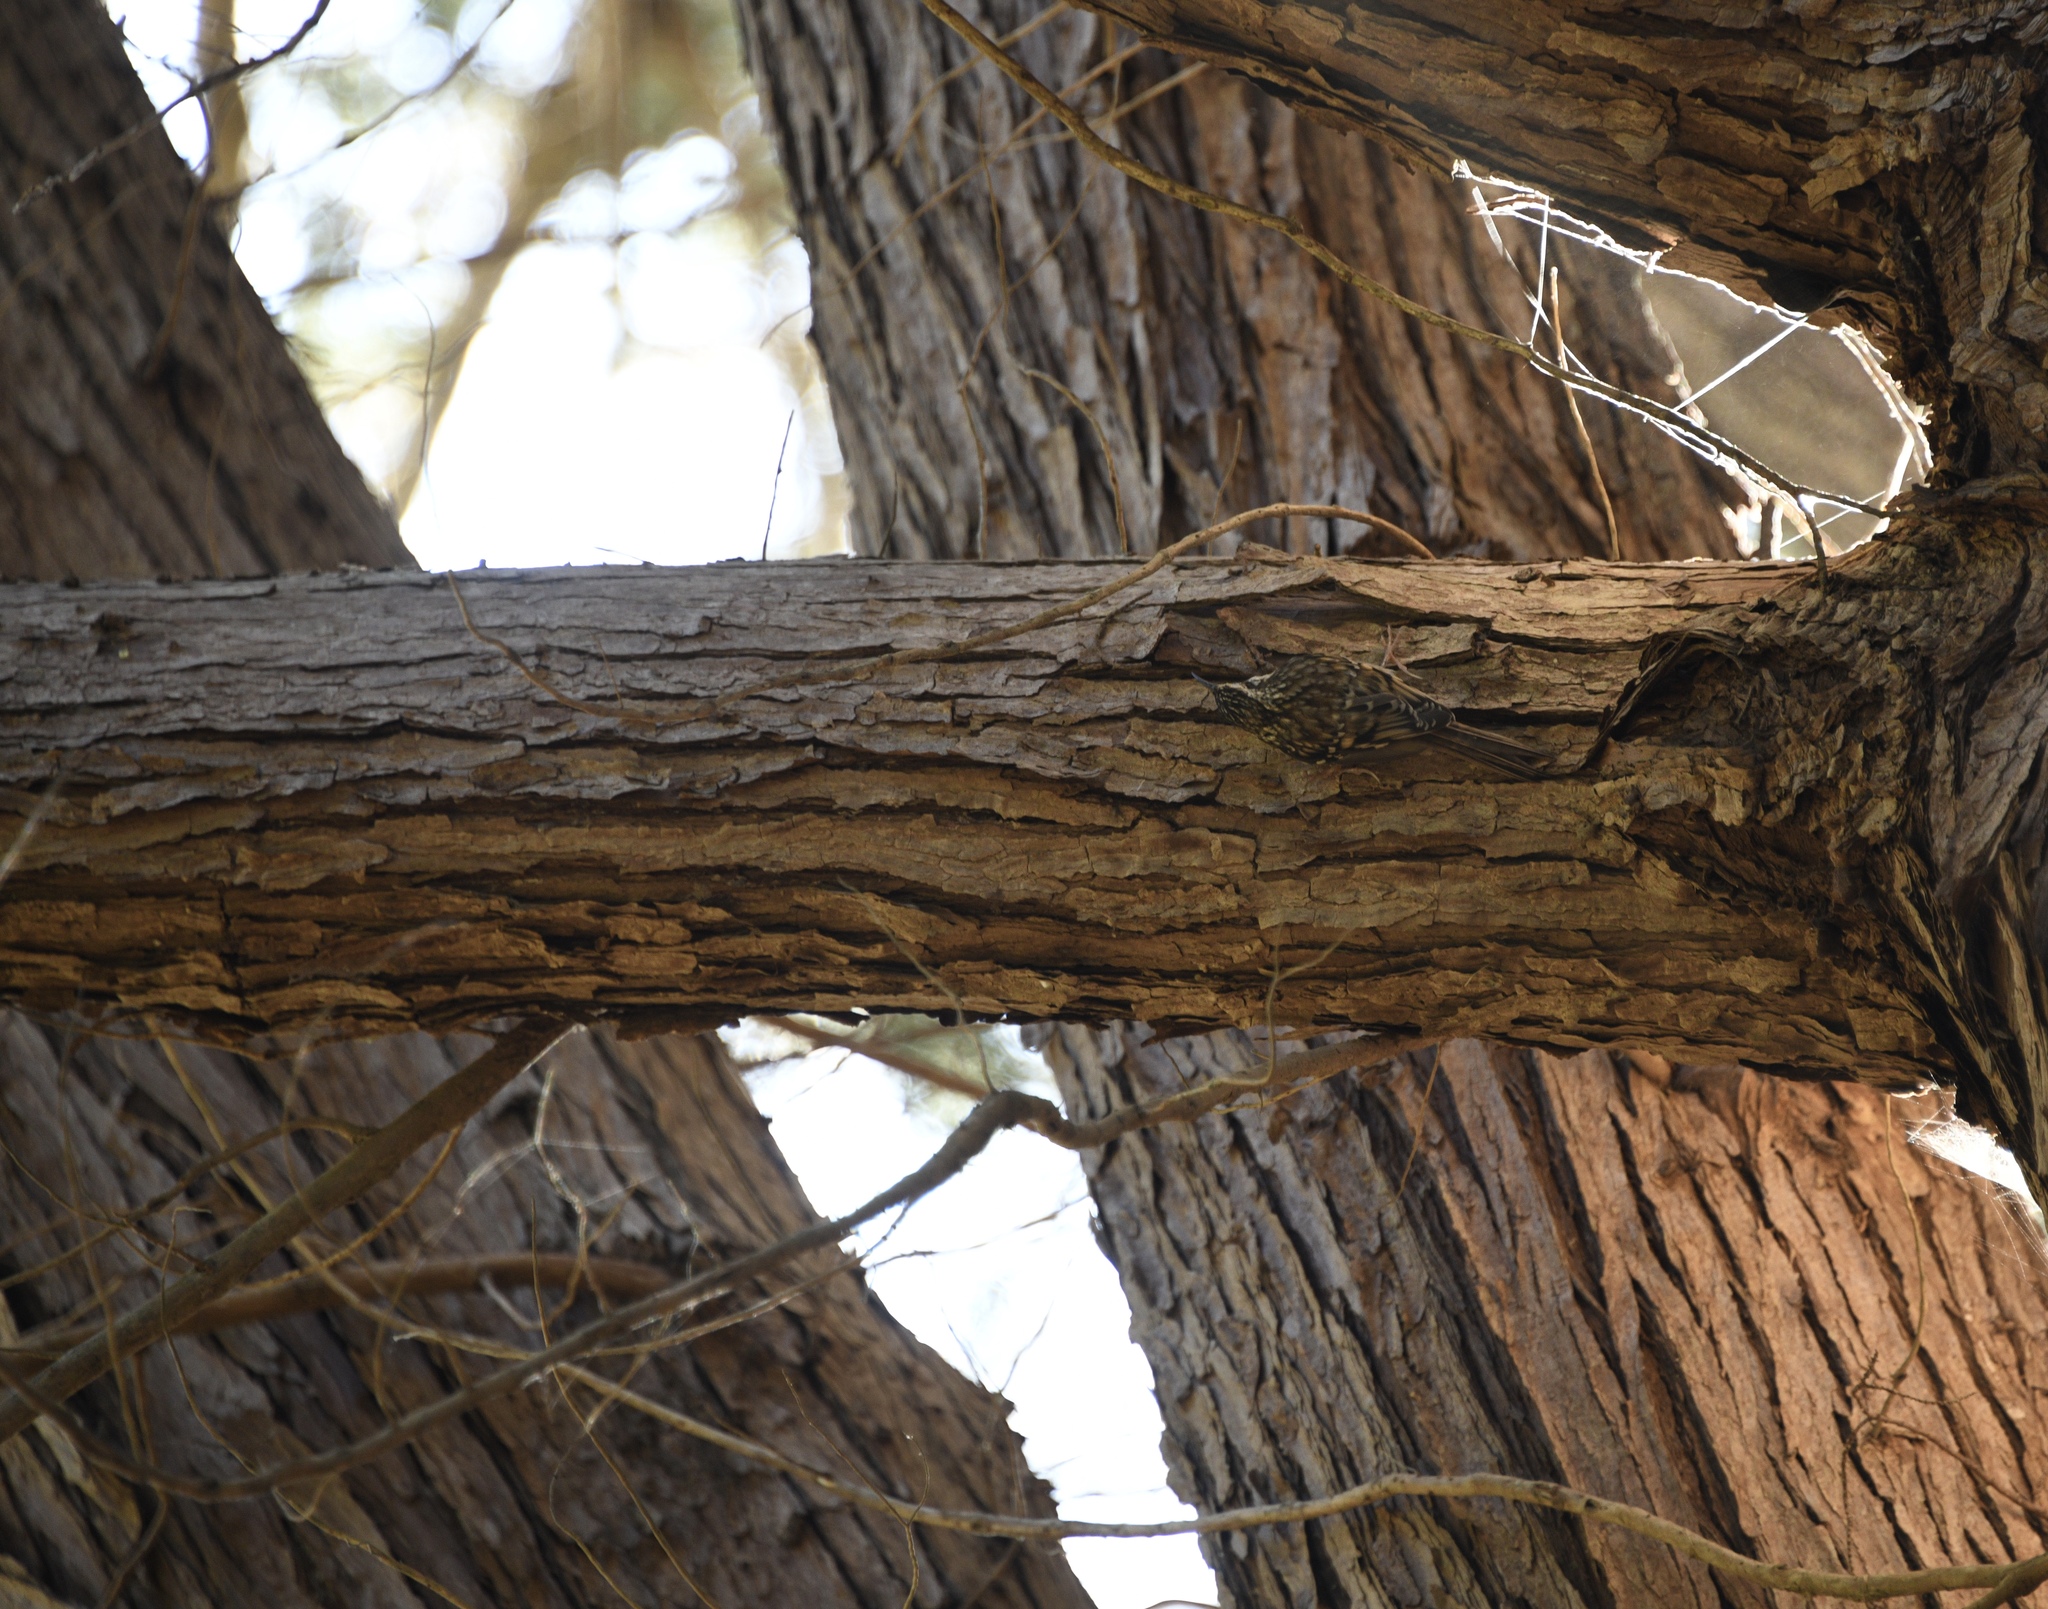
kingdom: Animalia
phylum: Chordata
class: Aves
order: Passeriformes
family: Certhiidae
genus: Certhia
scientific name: Certhia americana
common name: Brown creeper
